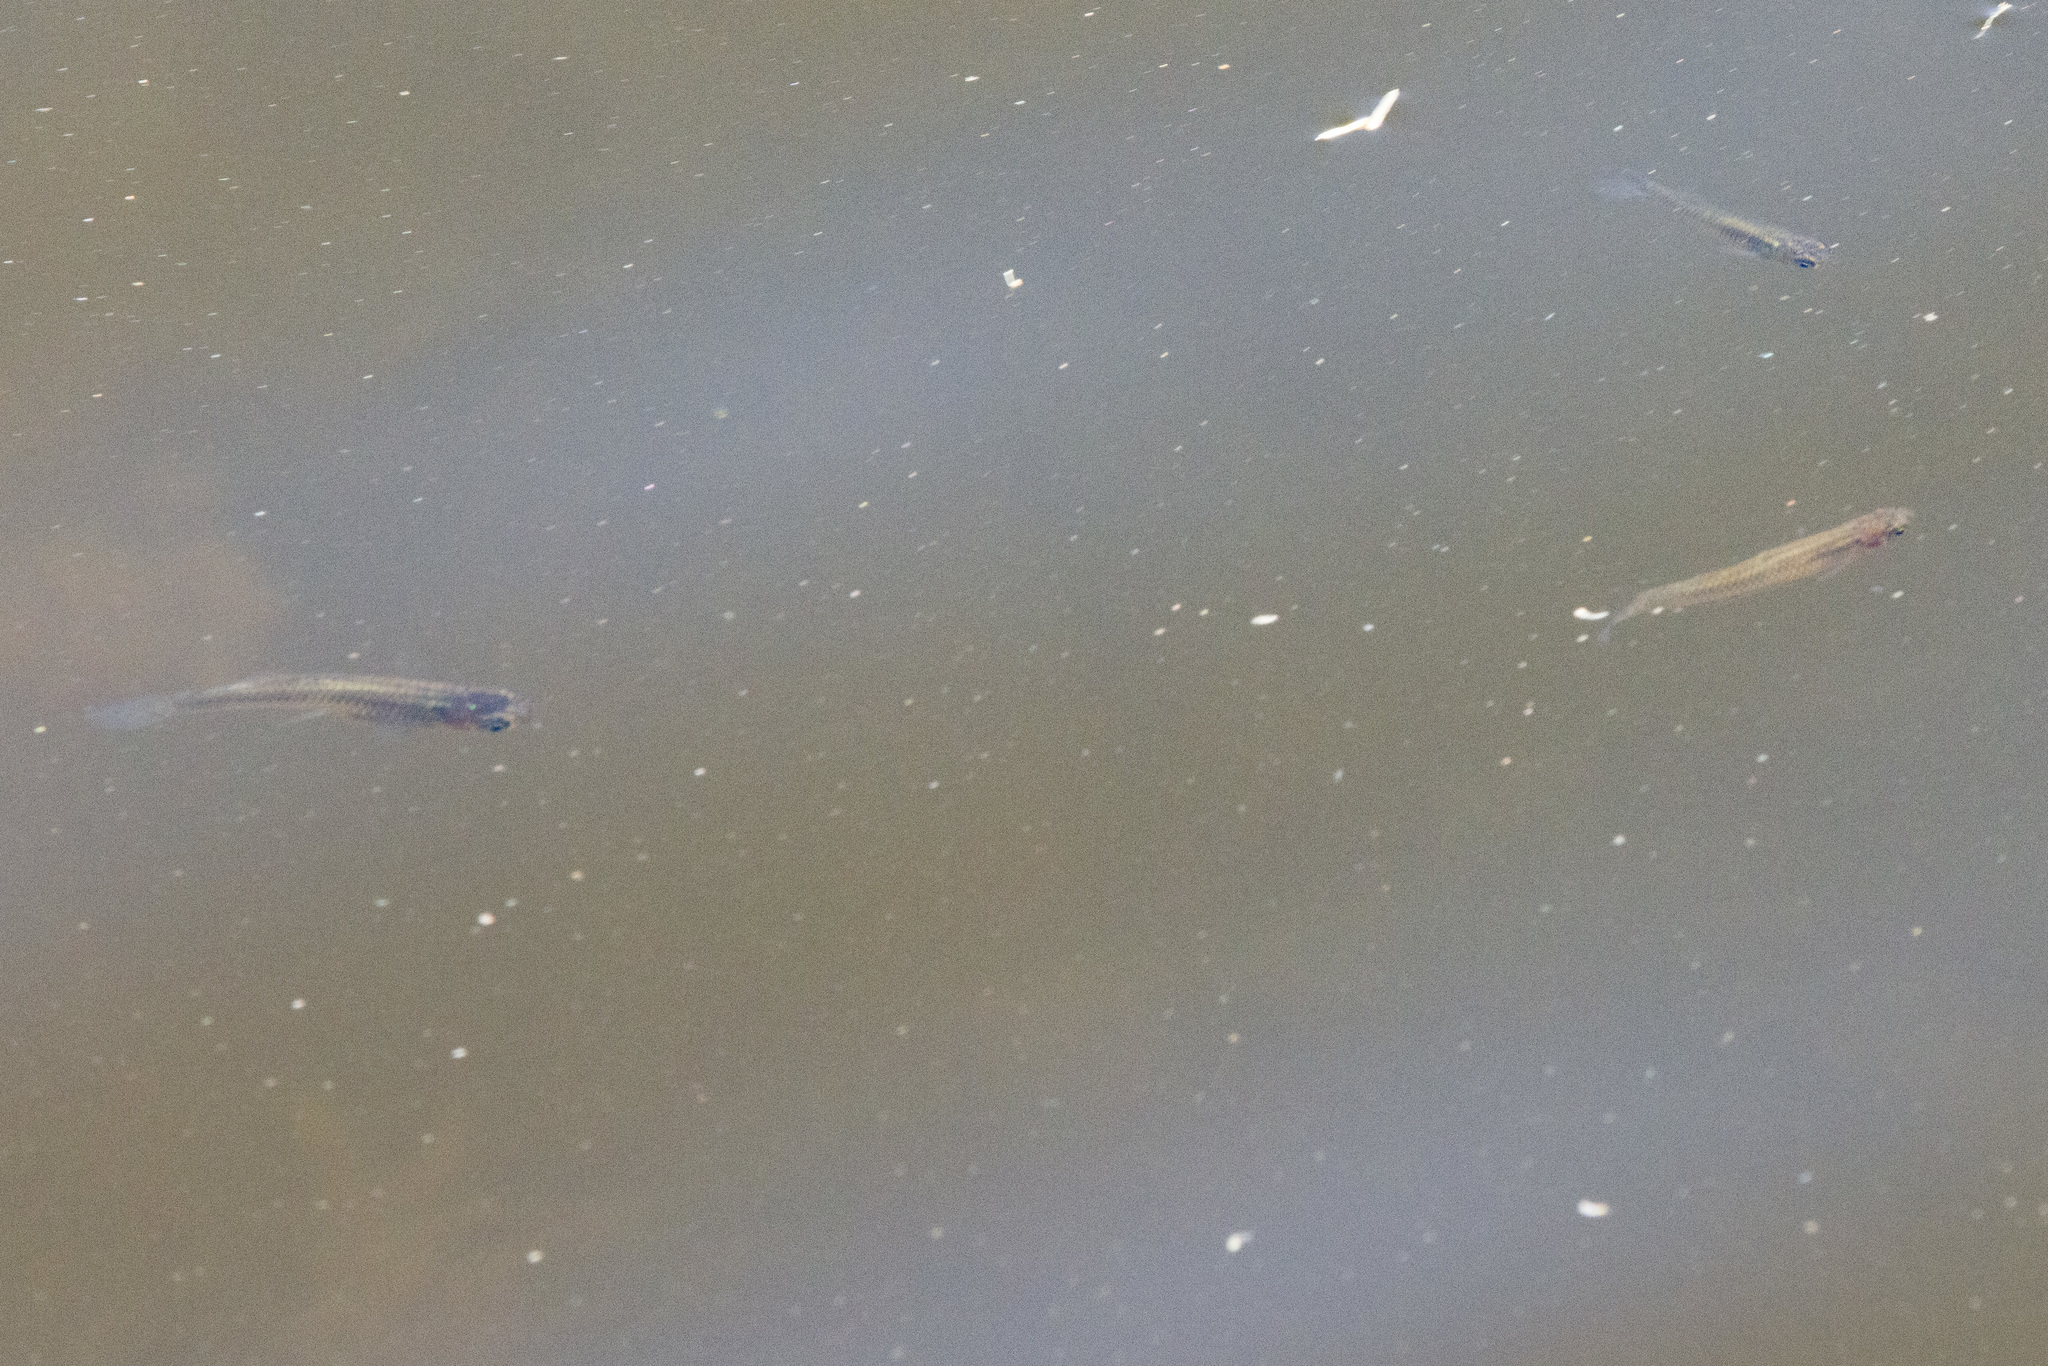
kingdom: Animalia
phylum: Chordata
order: Cyprinodontiformes
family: Poeciliidae
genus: Gambusia
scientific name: Gambusia affinis
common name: Mosquitofish
